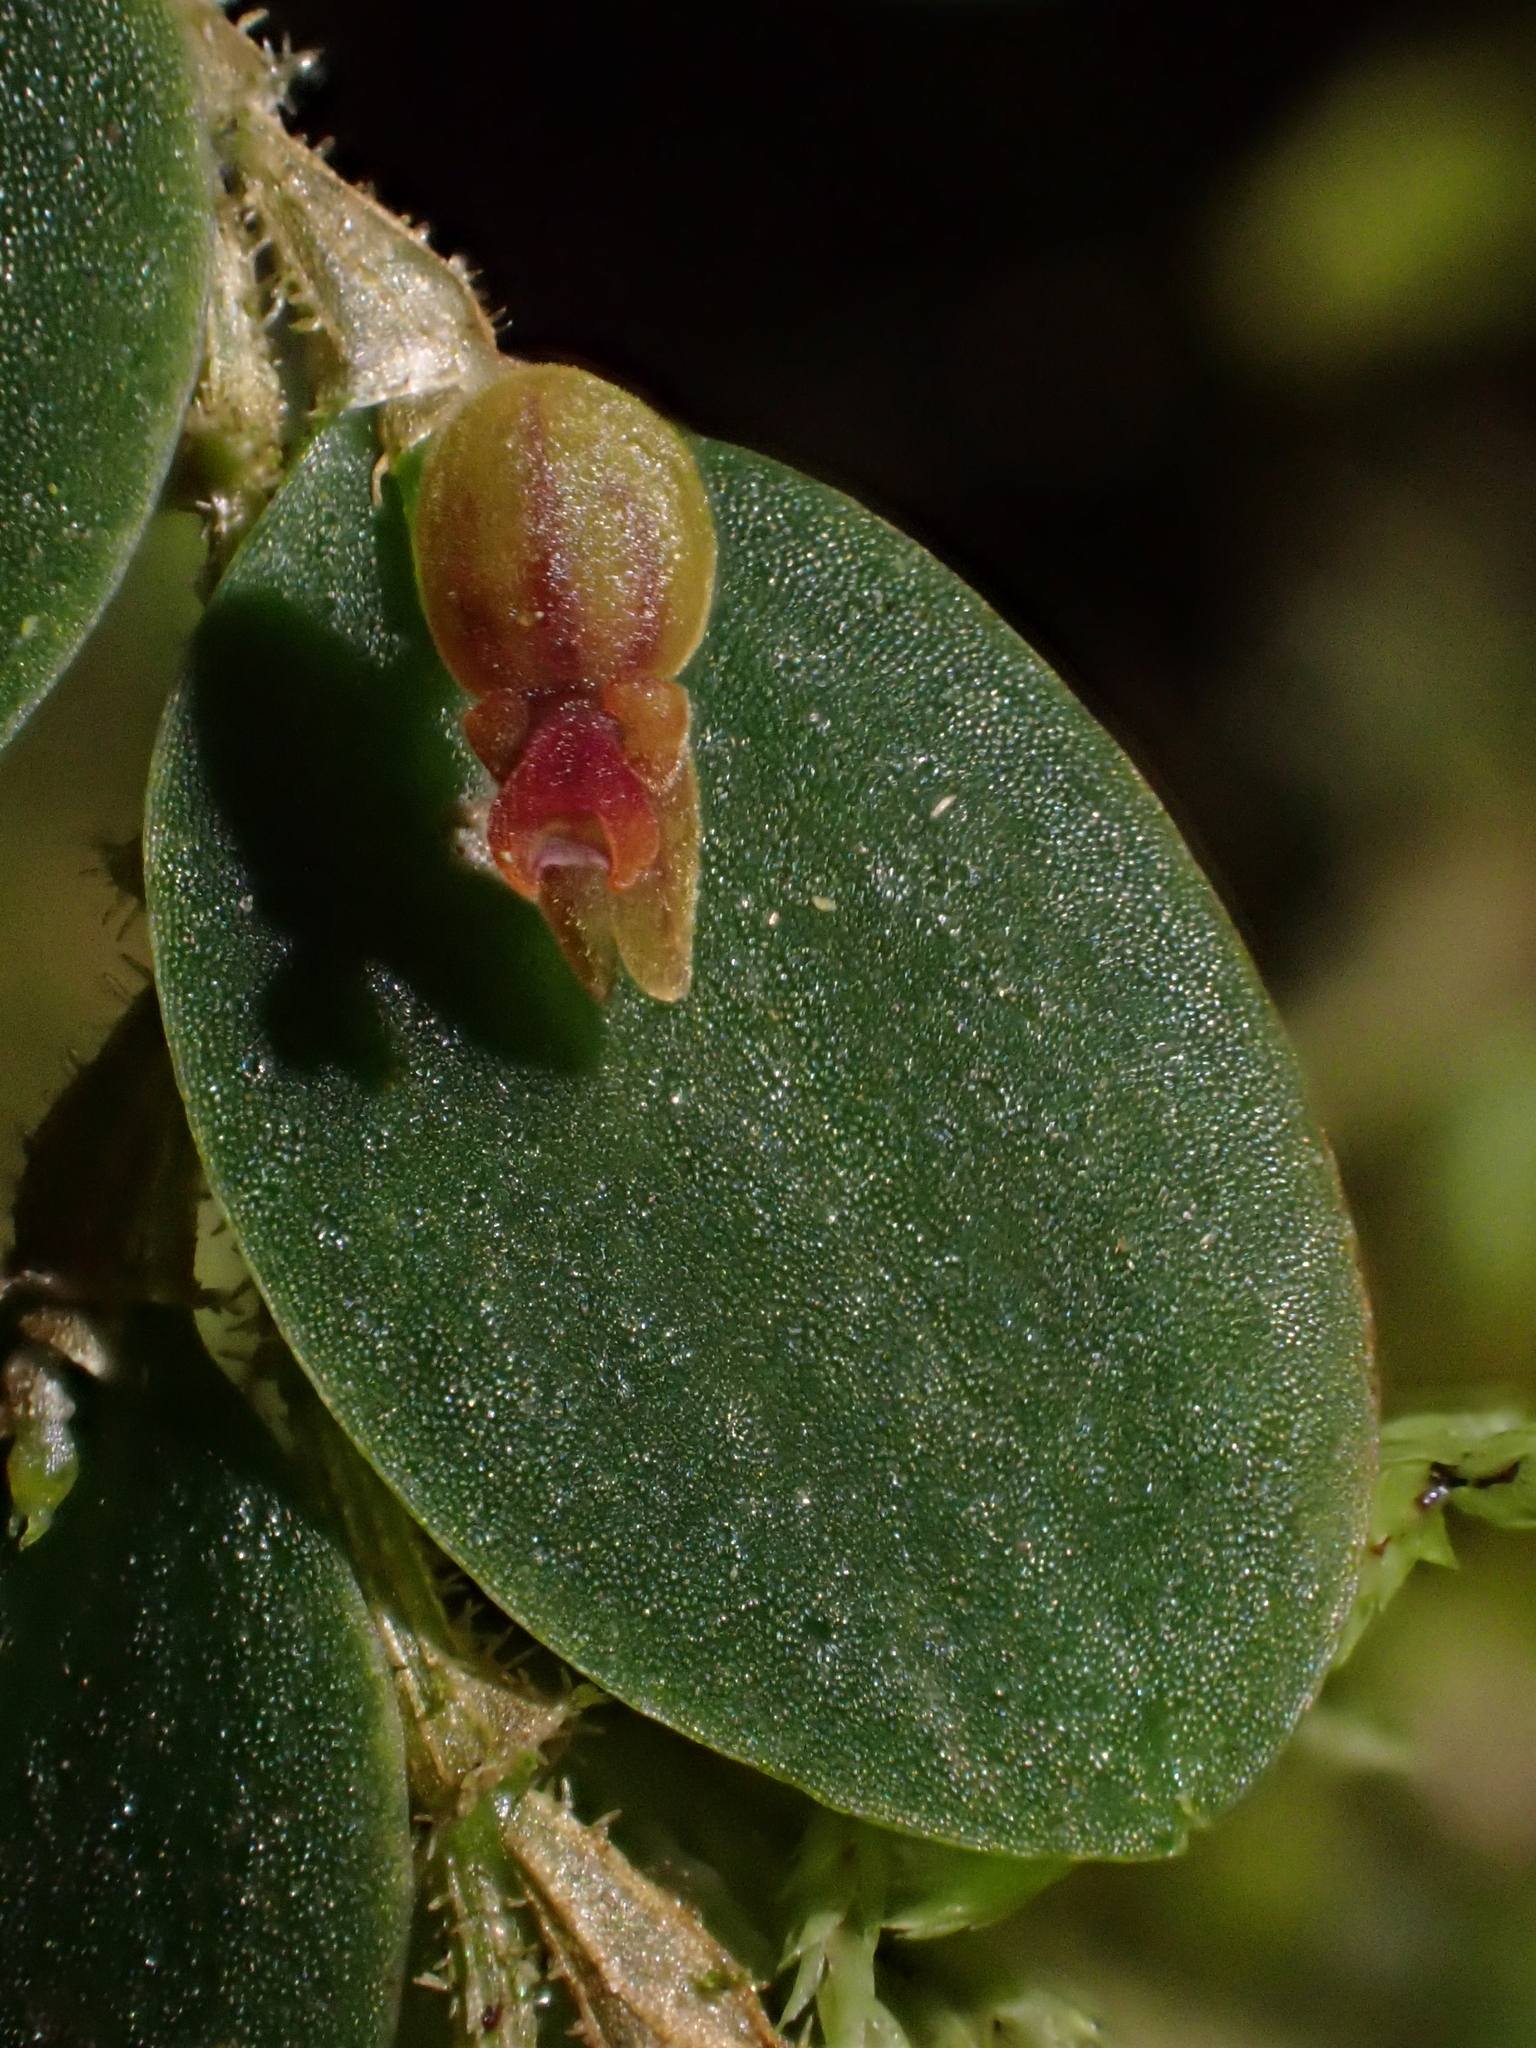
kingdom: Plantae
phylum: Tracheophyta
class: Liliopsida
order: Asparagales
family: Orchidaceae
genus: Andinia
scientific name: Andinia nummularia
